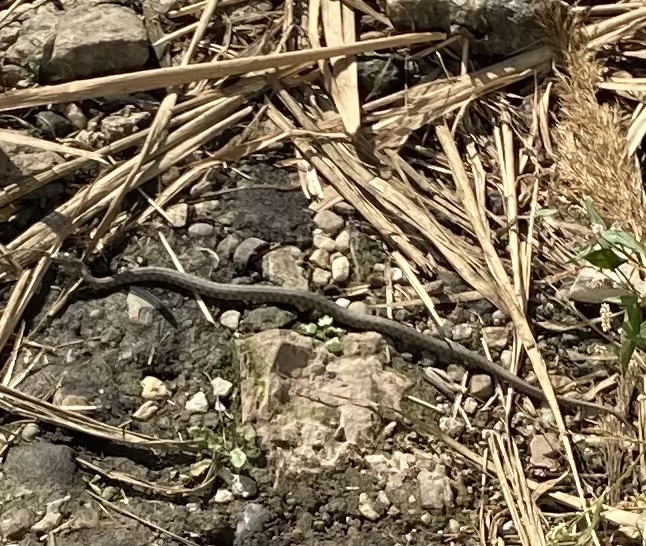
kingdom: Animalia
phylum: Chordata
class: Squamata
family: Colubridae
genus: Natrix
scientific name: Natrix tessellata
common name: Dice snake
